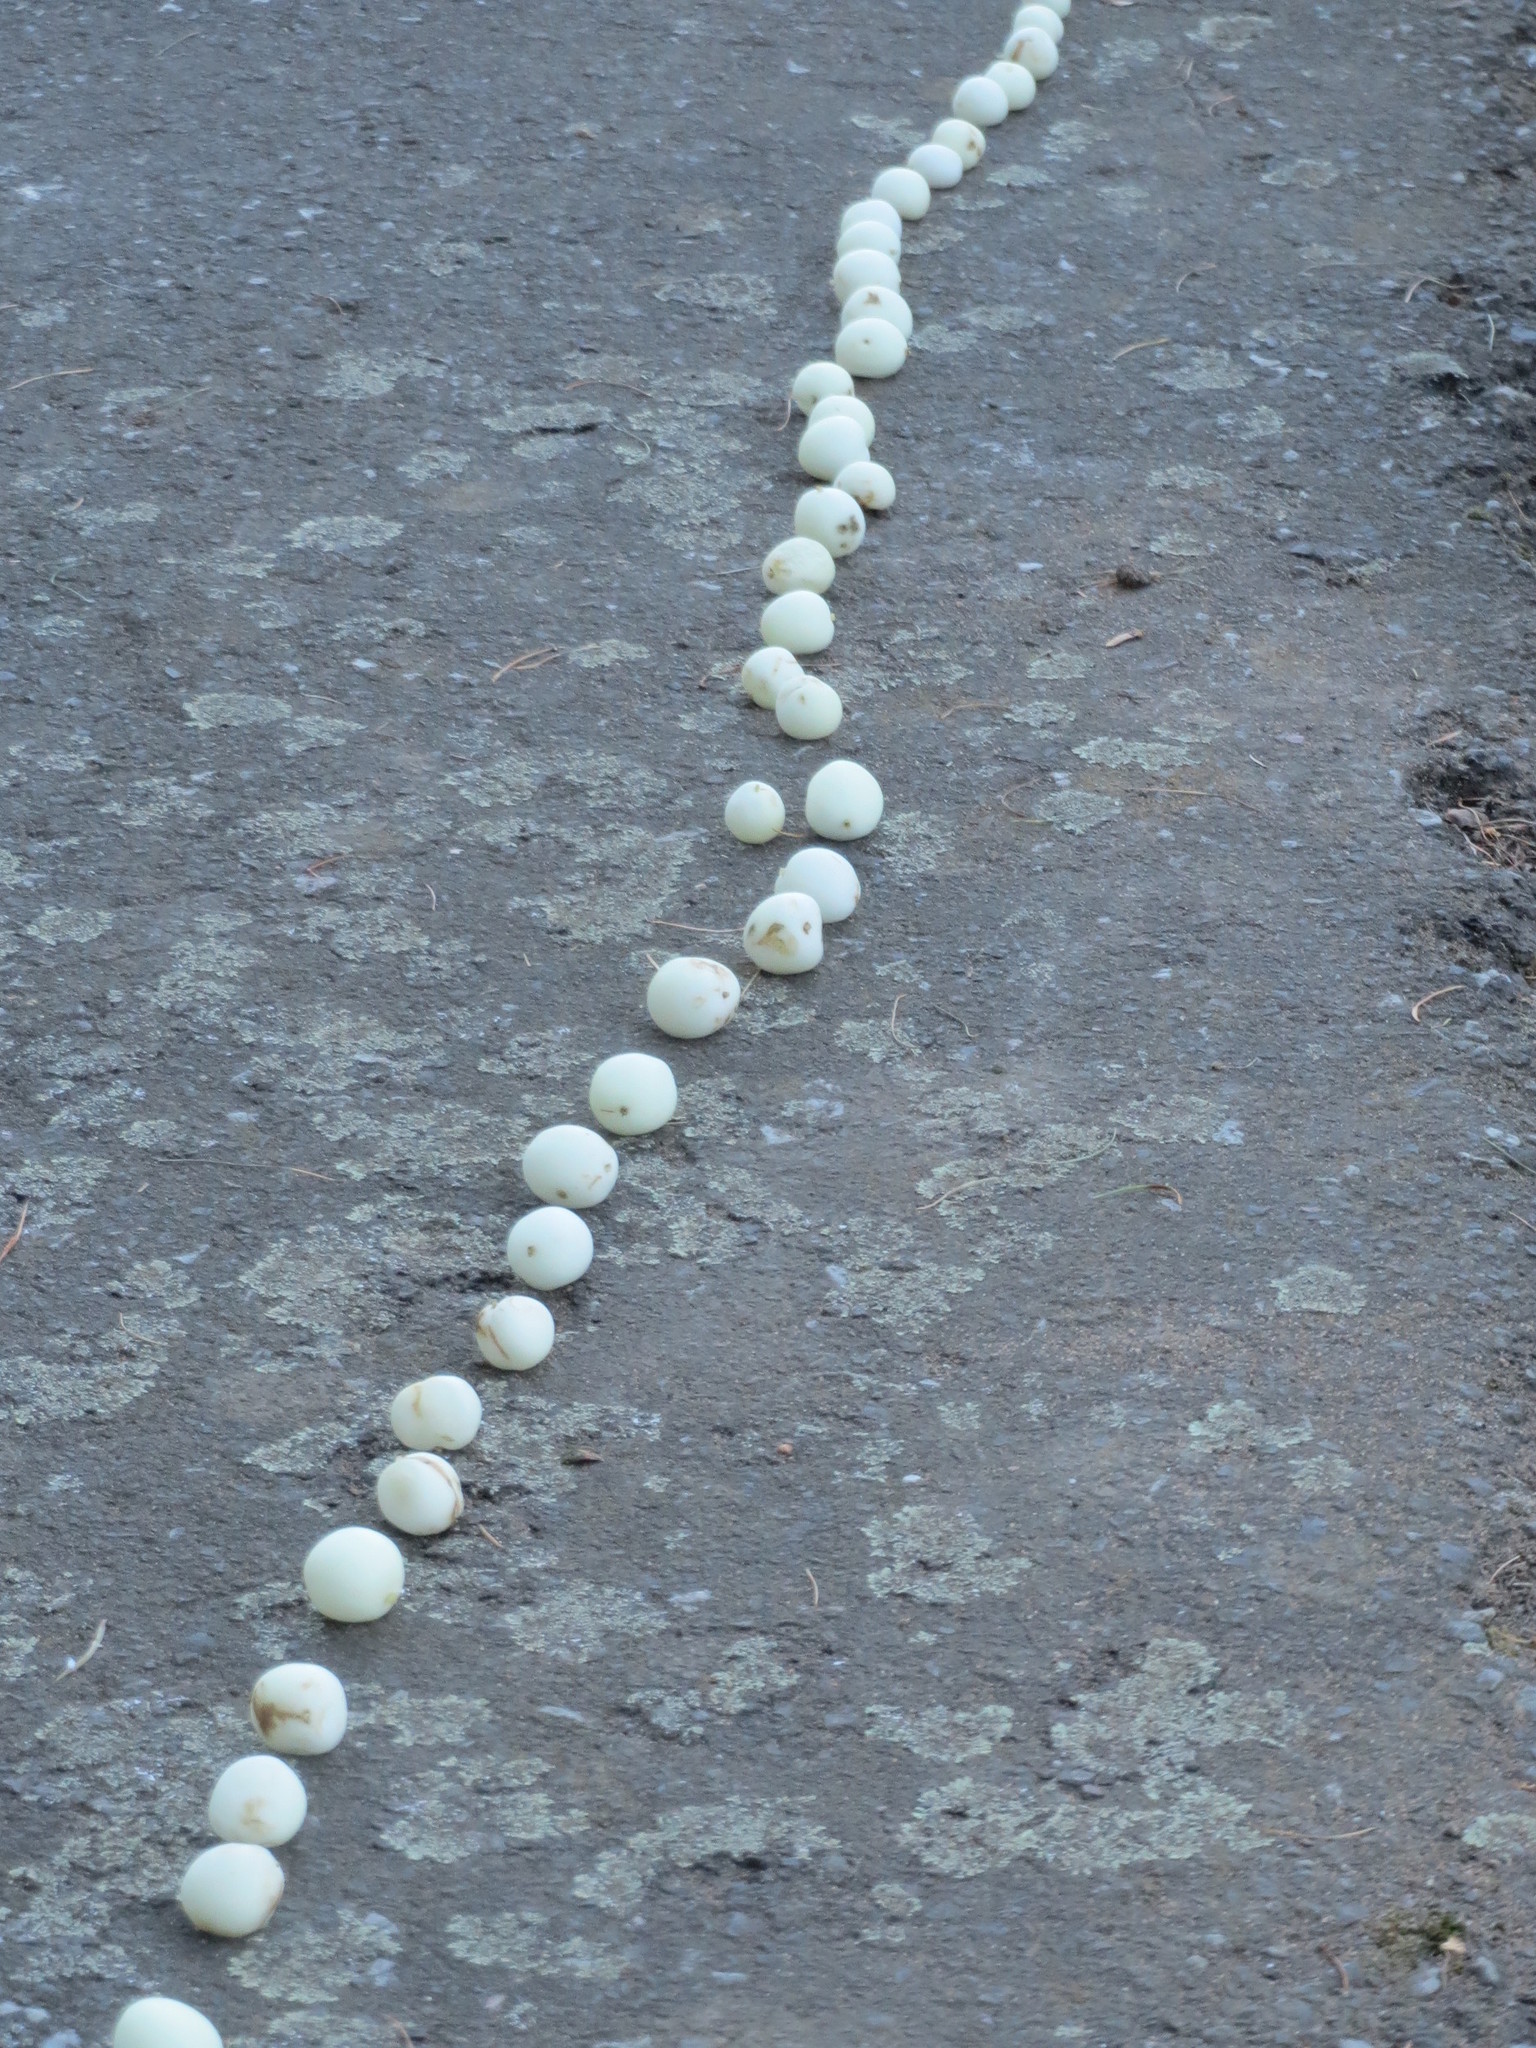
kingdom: Plantae
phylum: Tracheophyta
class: Magnoliopsida
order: Dipsacales
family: Caprifoliaceae
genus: Symphoricarpos
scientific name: Symphoricarpos albus
